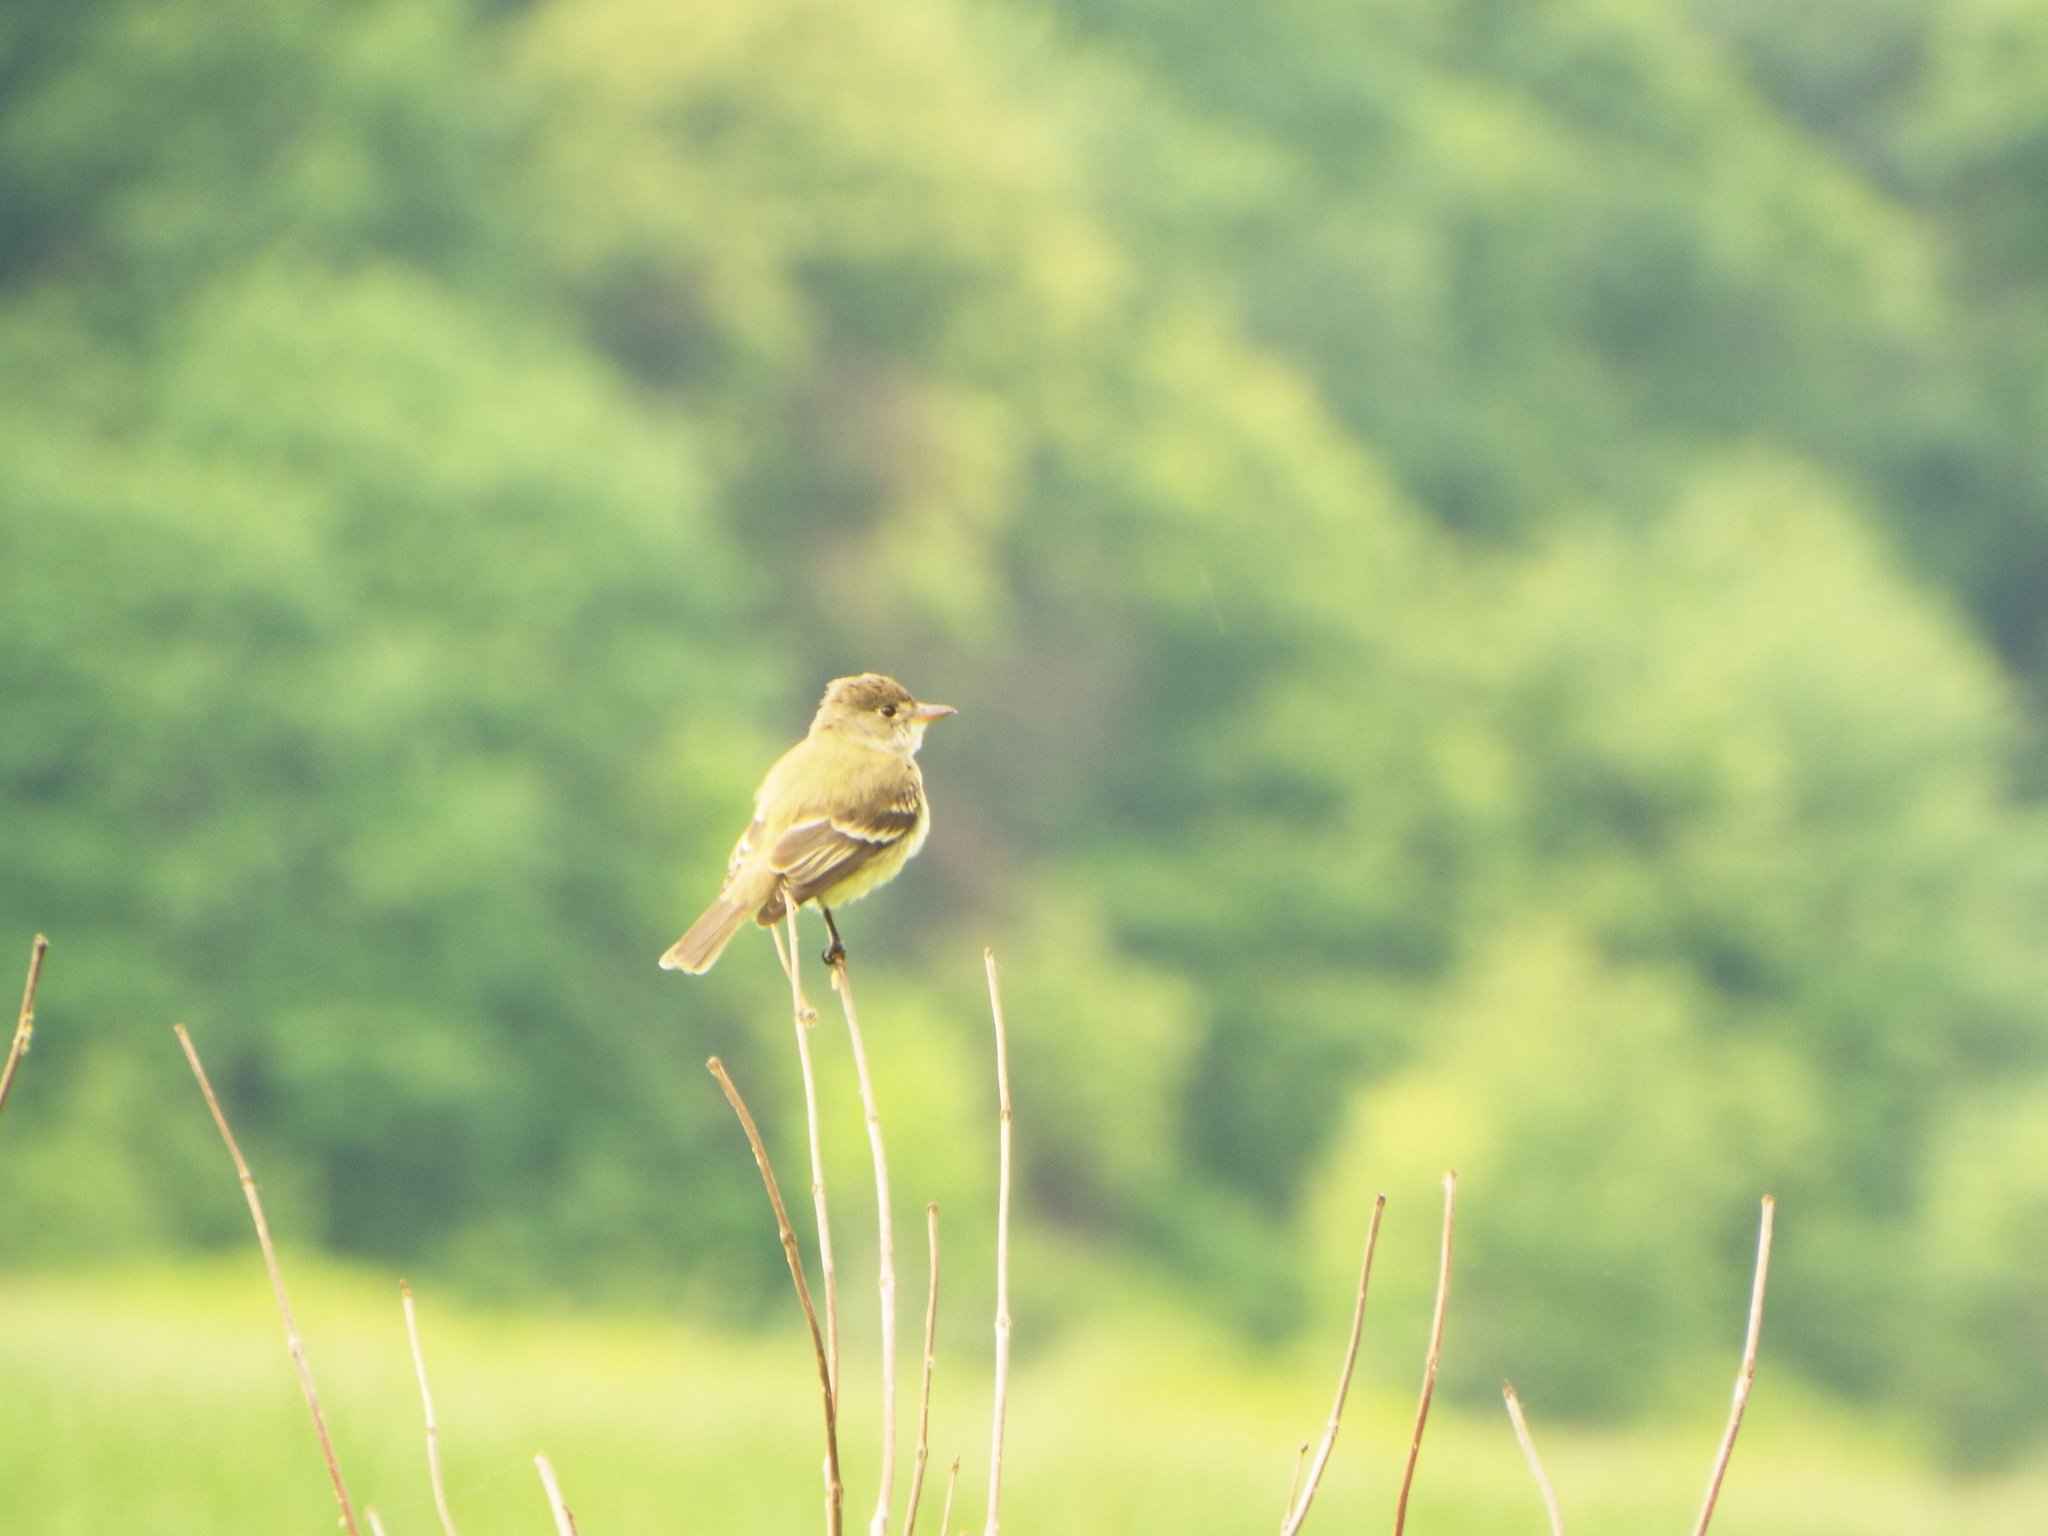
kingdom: Animalia
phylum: Chordata
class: Aves
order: Passeriformes
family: Tyrannidae
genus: Empidonax
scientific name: Empidonax traillii
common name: Willow flycatcher
